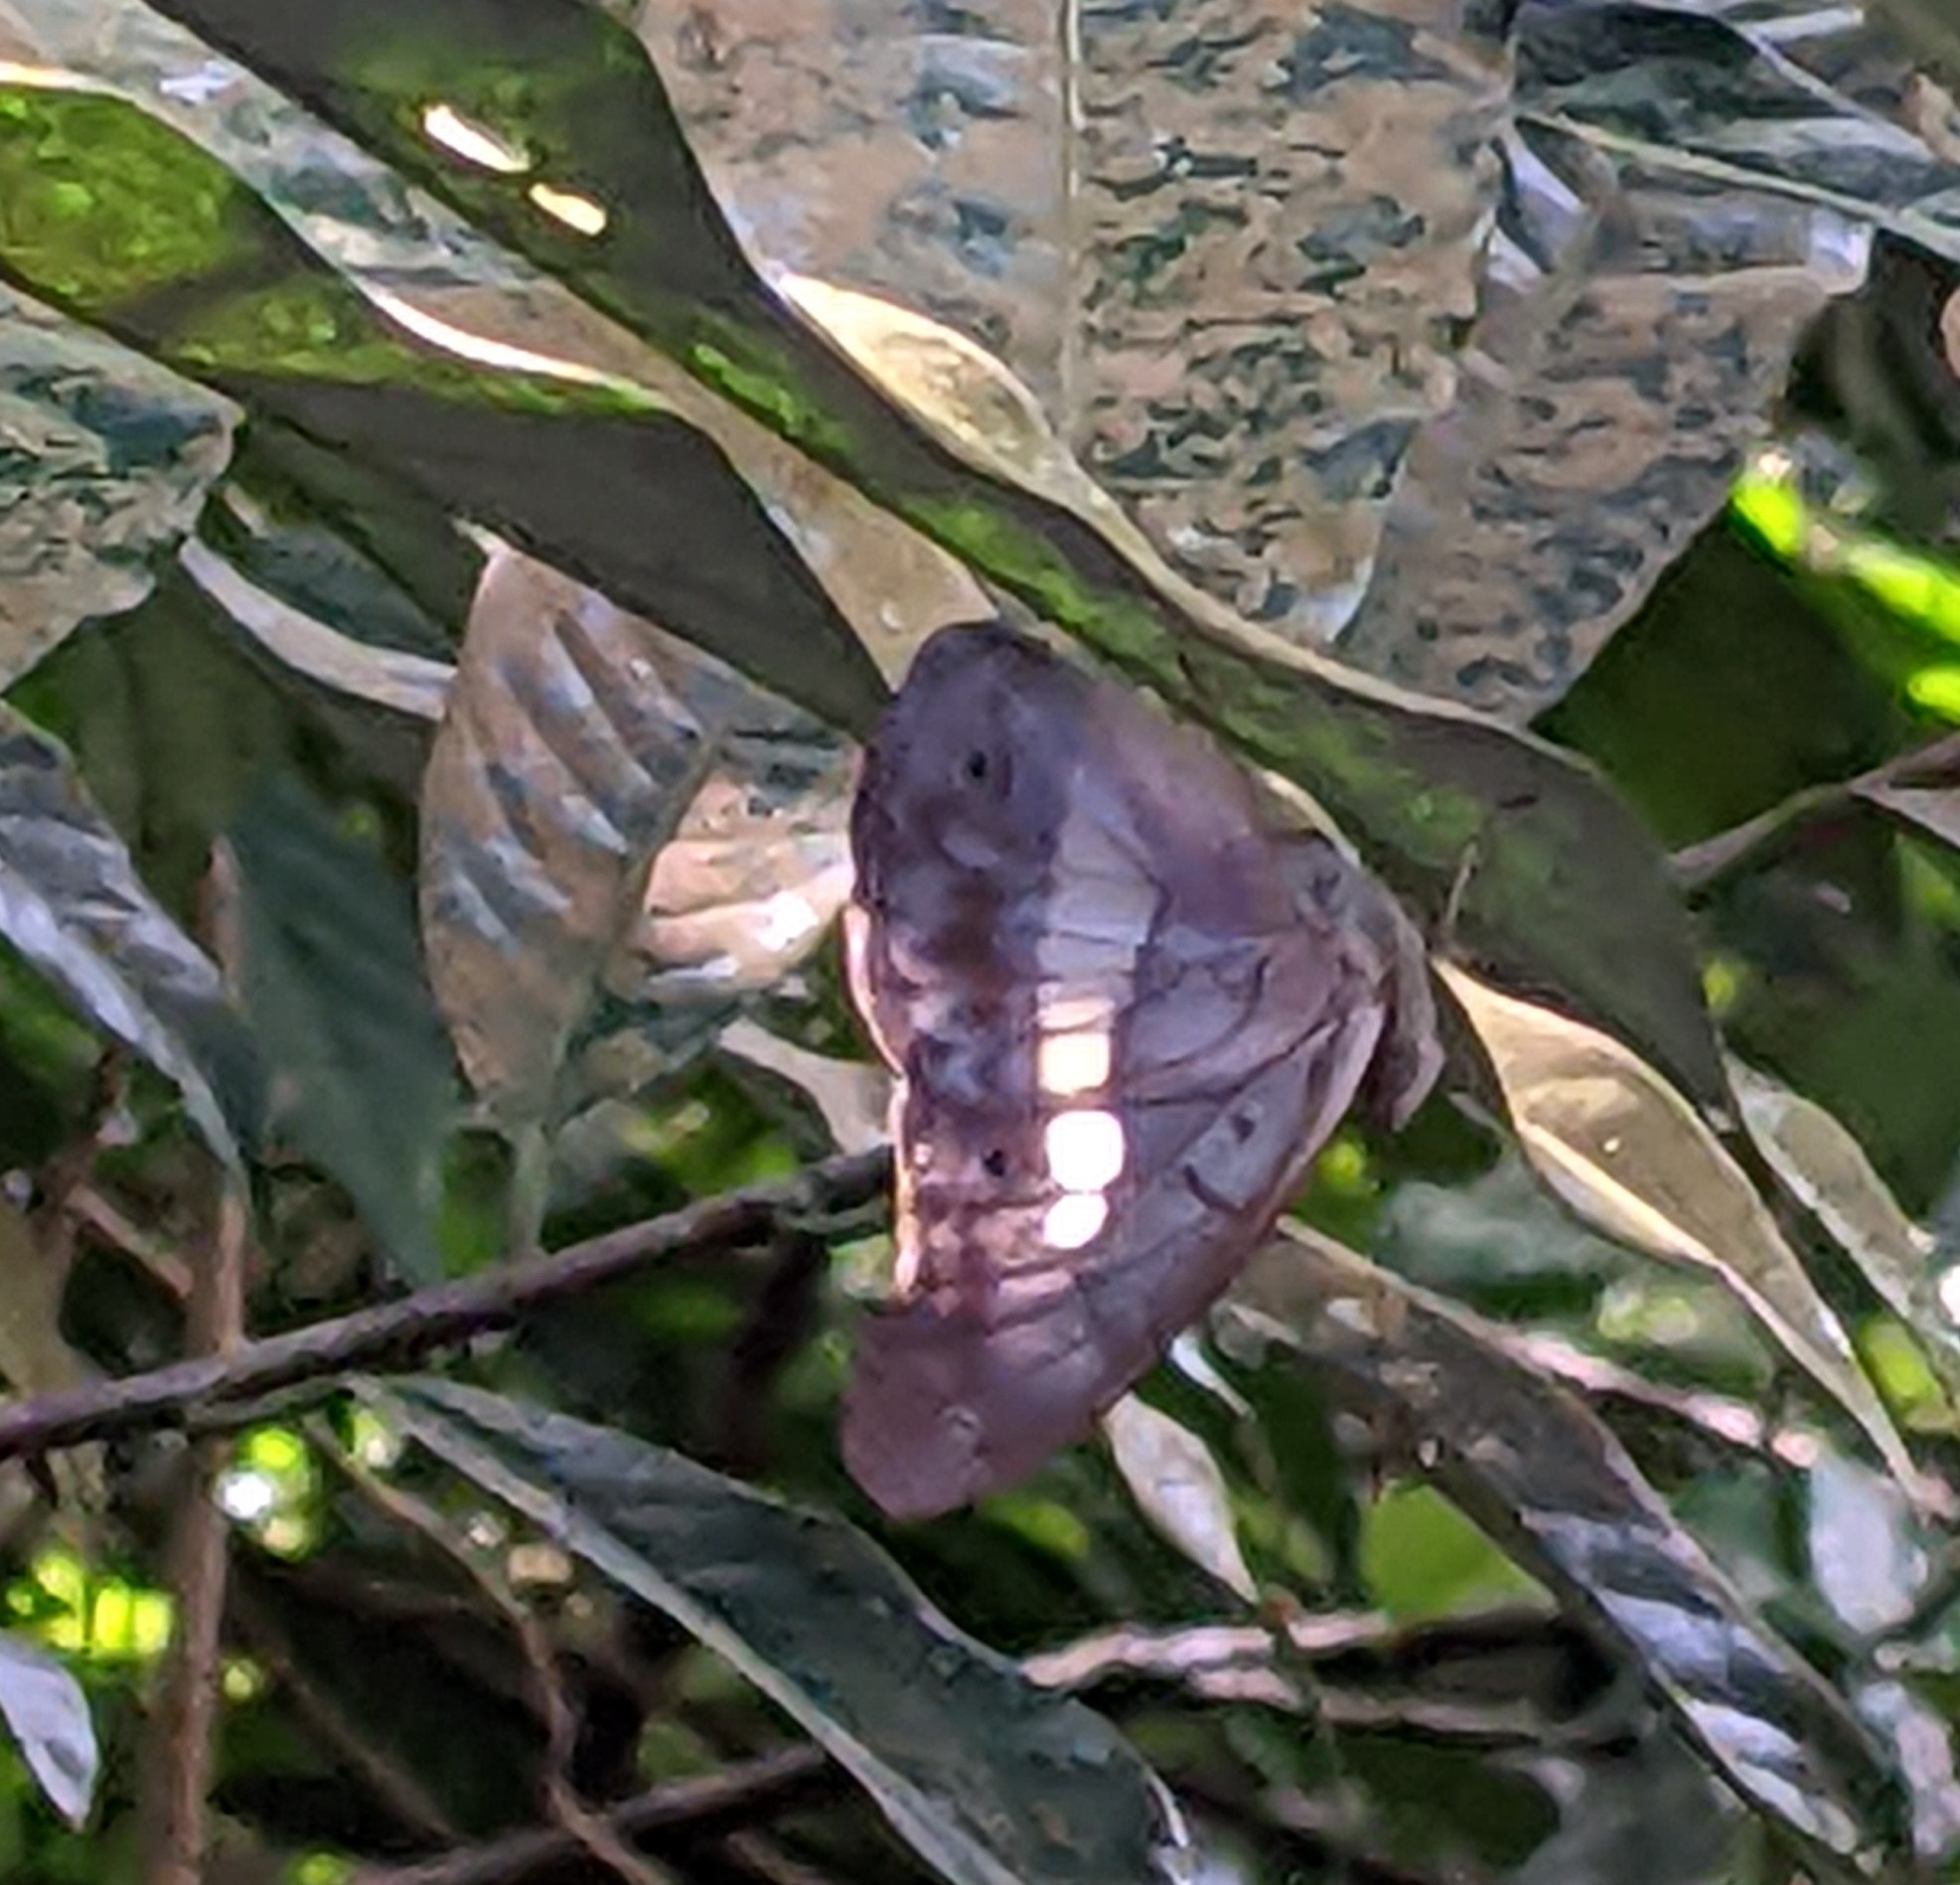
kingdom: Animalia
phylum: Arthropoda
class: Insecta
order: Lepidoptera
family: Nymphalidae
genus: Eulaceura
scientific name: Eulaceura osteria
